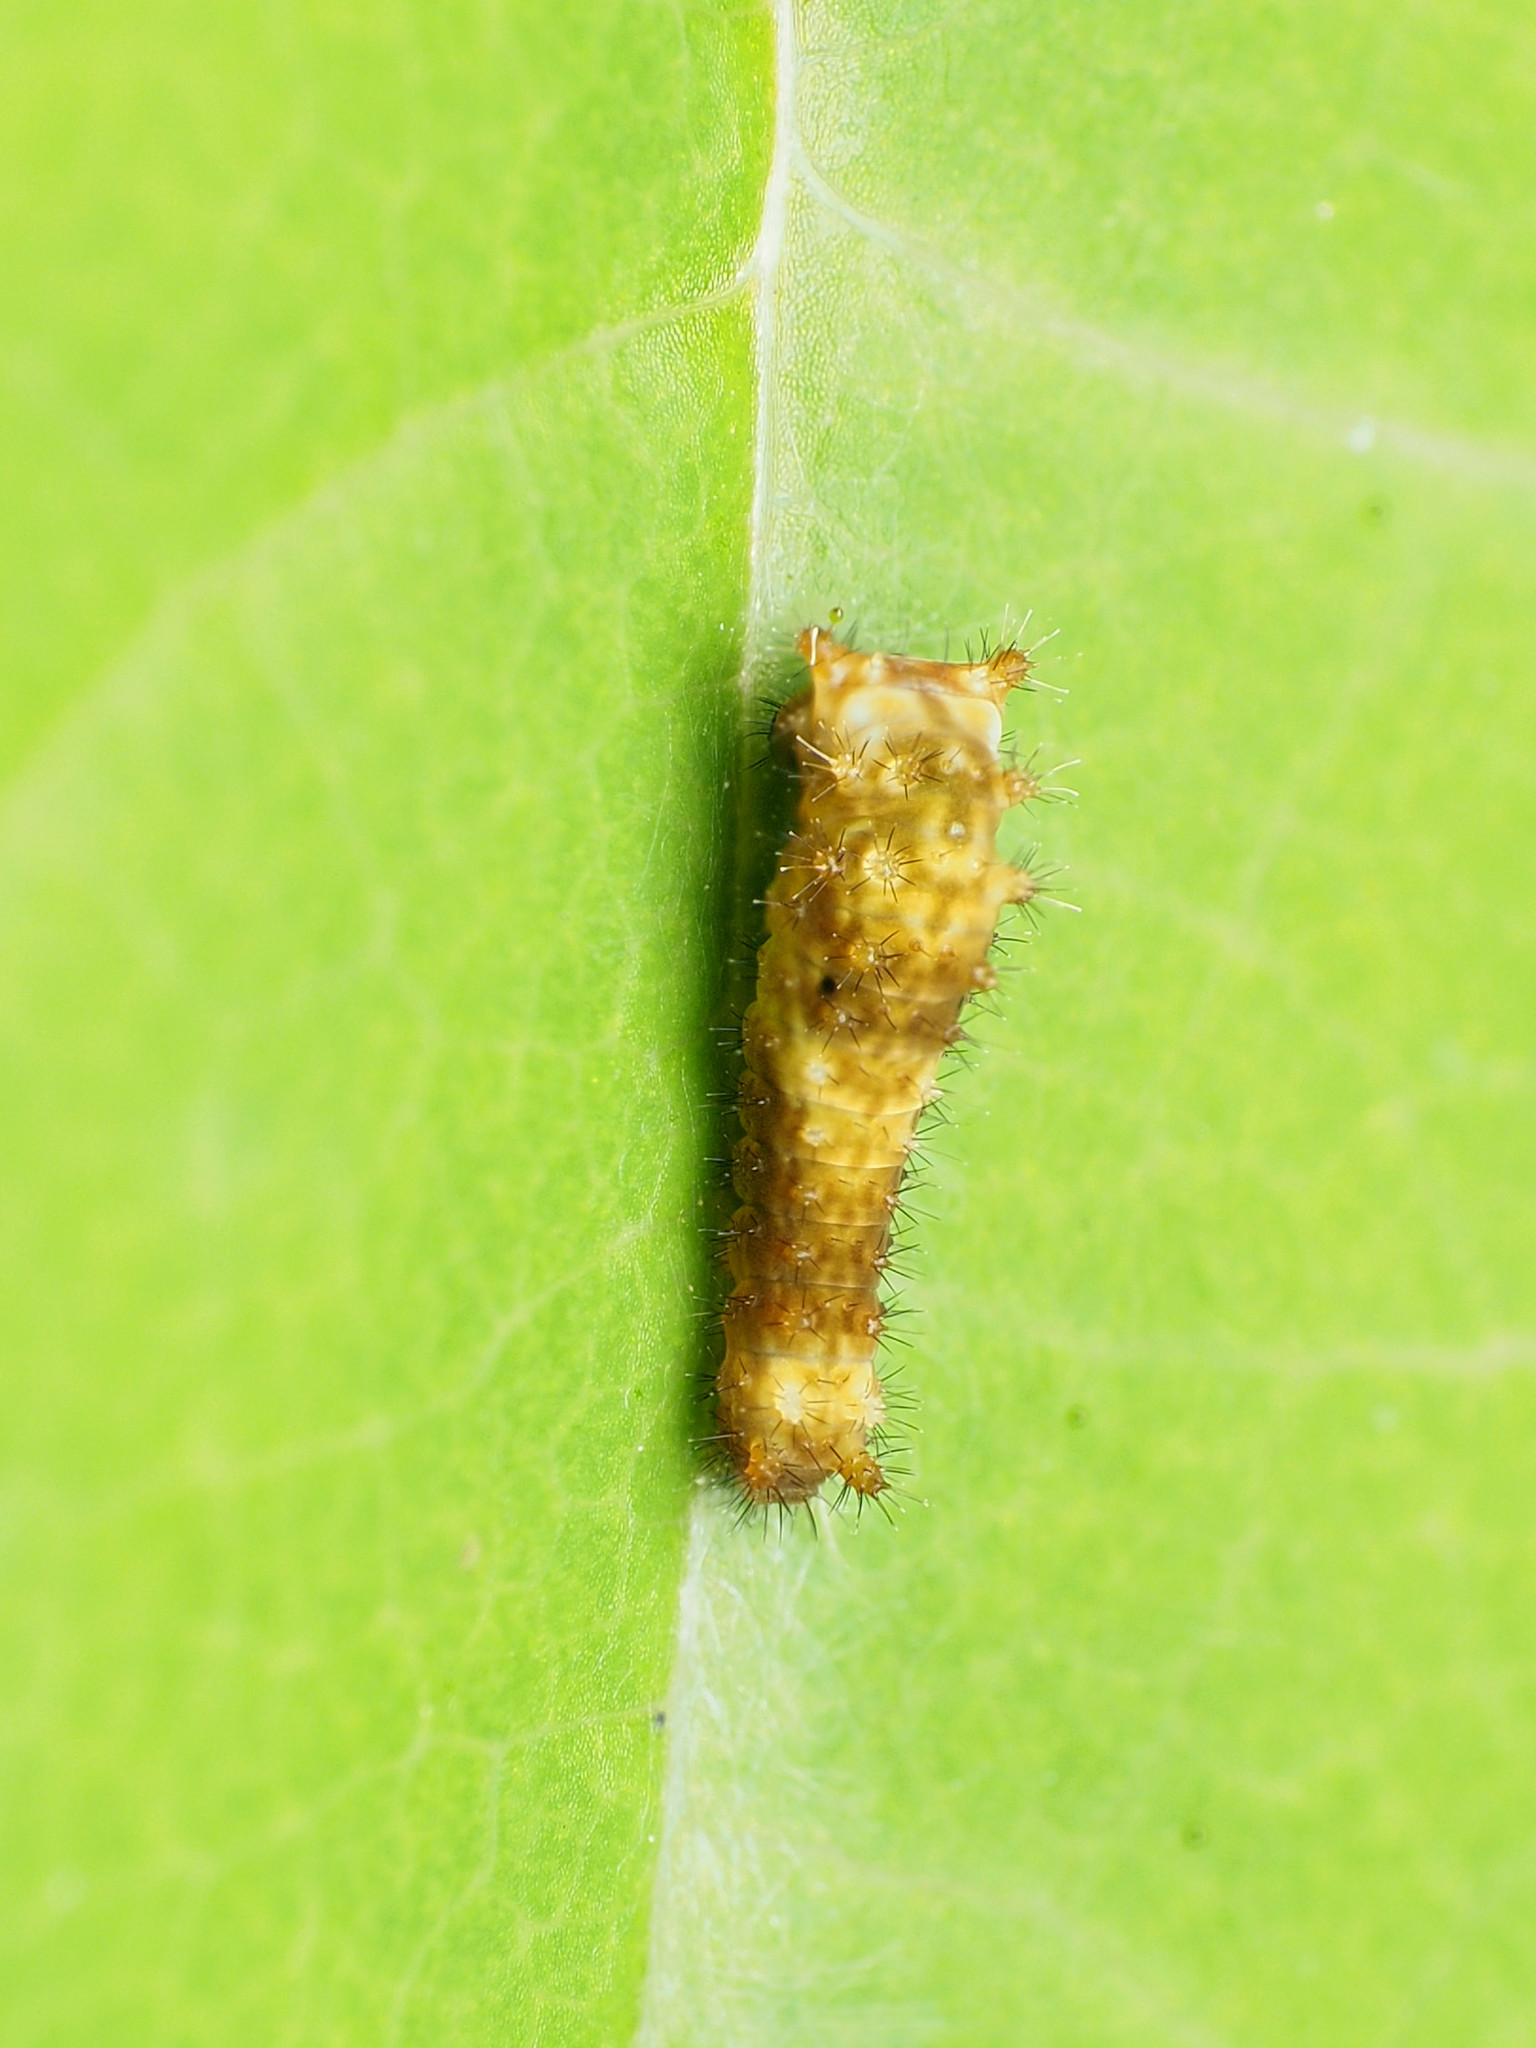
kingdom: Animalia
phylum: Arthropoda
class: Insecta
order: Lepidoptera
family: Papilionidae
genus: Papilio
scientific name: Papilio troilus
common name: Spicebush swallowtail
